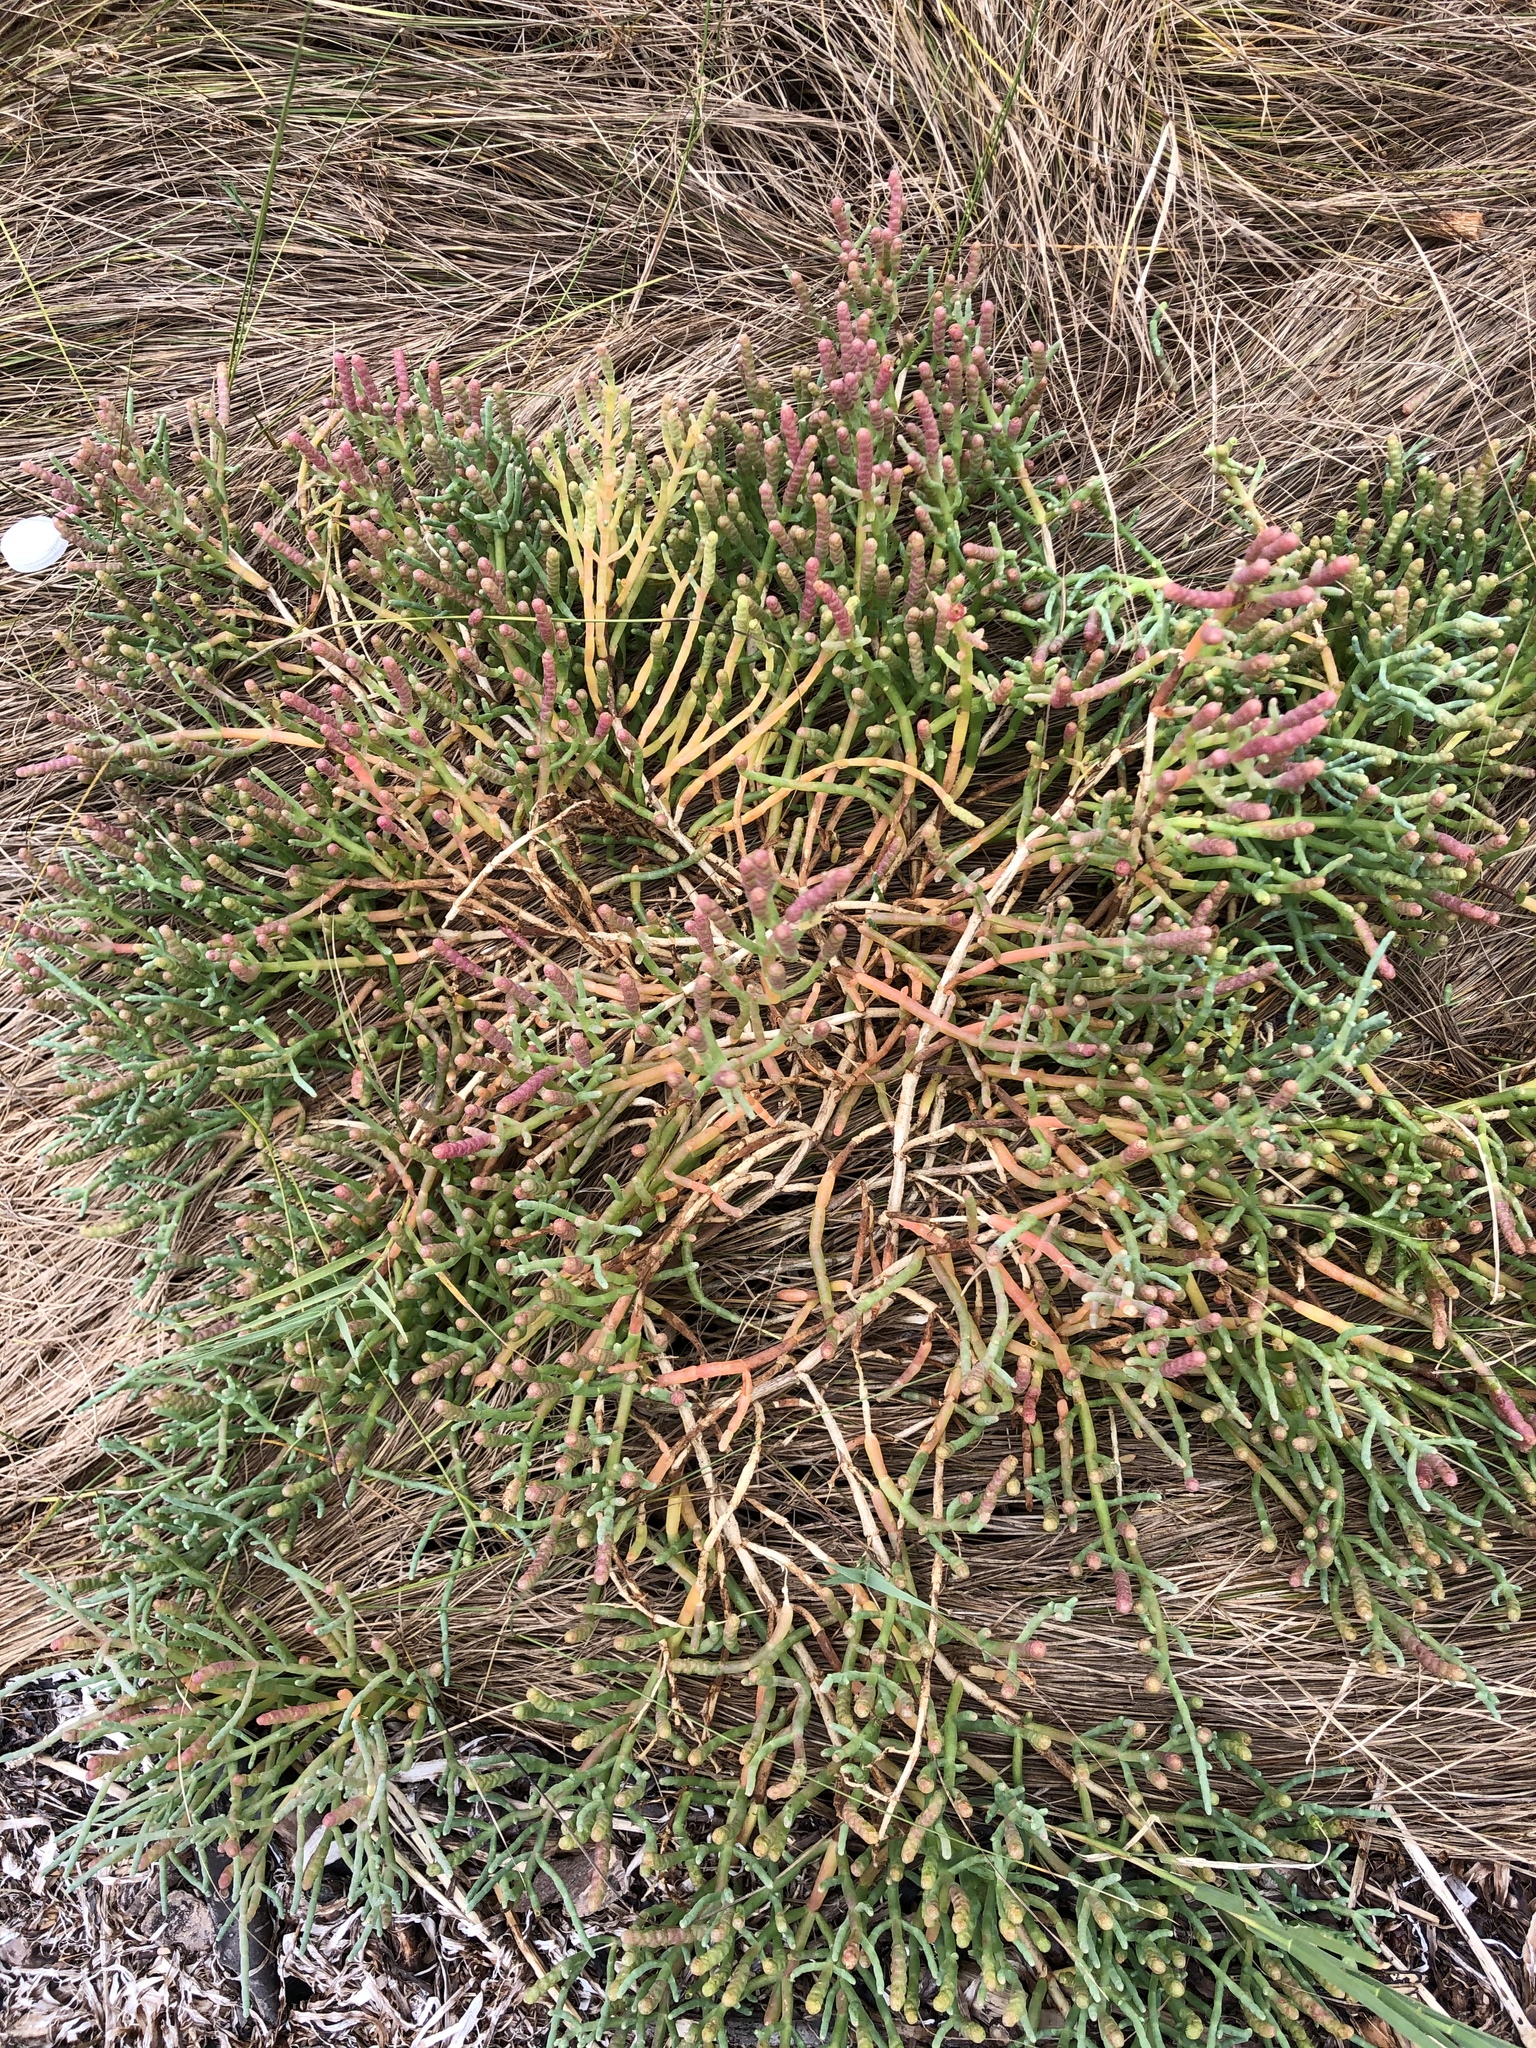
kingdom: Plantae
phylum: Tracheophyta
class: Magnoliopsida
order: Caryophyllales
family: Amaranthaceae
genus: Salicornia
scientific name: Salicornia pacifica
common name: Pacific glasswort
